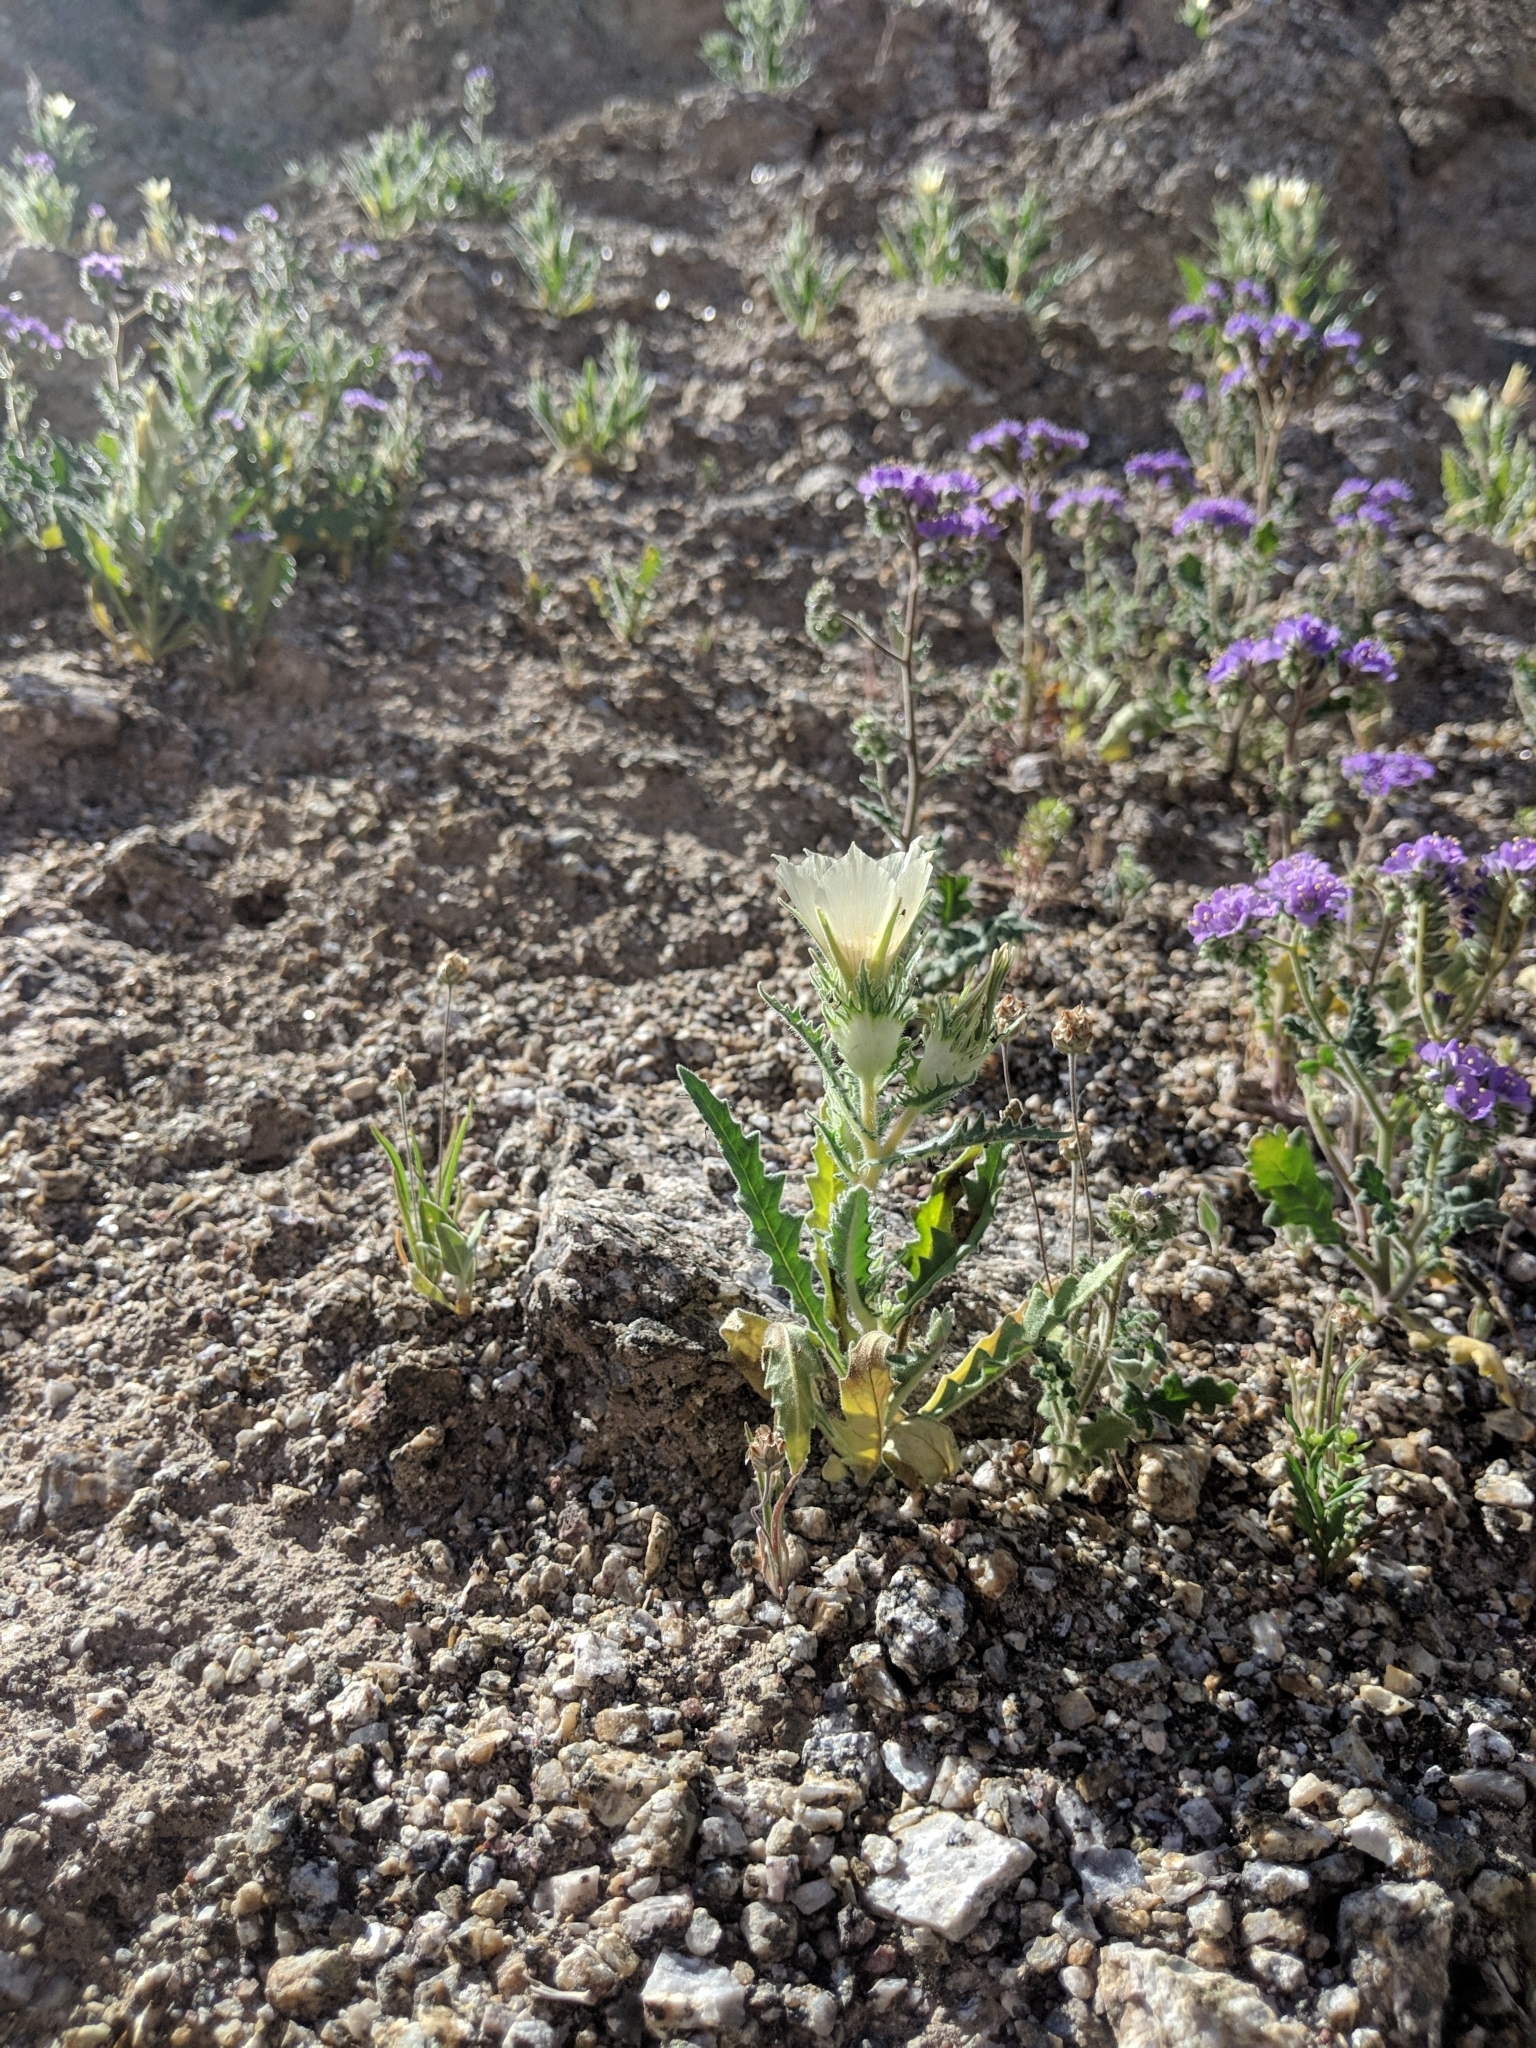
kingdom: Plantae
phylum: Tracheophyta
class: Magnoliopsida
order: Cornales
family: Loasaceae
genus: Mentzelia
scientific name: Mentzelia involucrata
